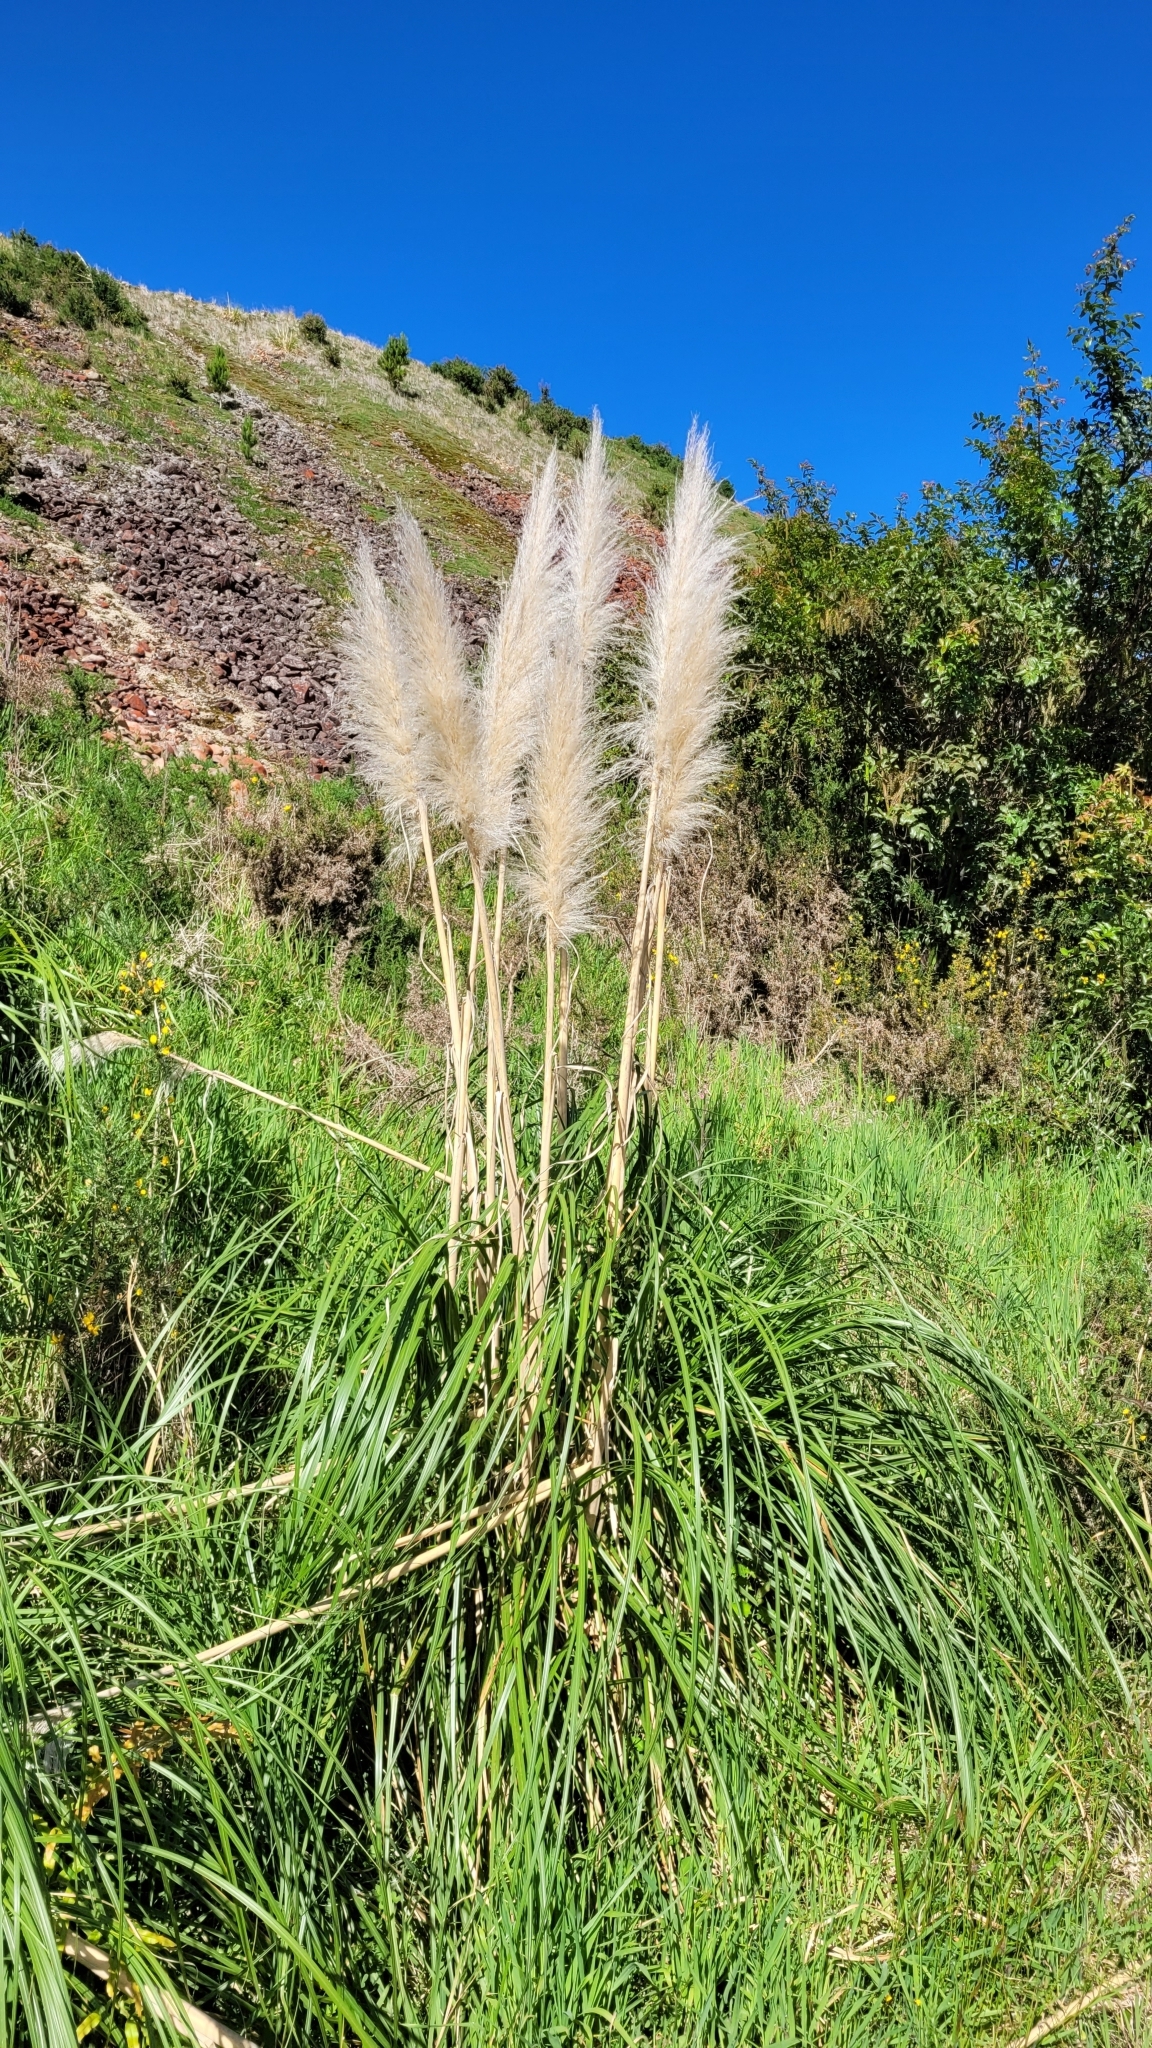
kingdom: Plantae
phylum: Tracheophyta
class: Liliopsida
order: Poales
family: Poaceae
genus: Cortaderia
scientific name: Cortaderia jubata
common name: Purple pampas grass
